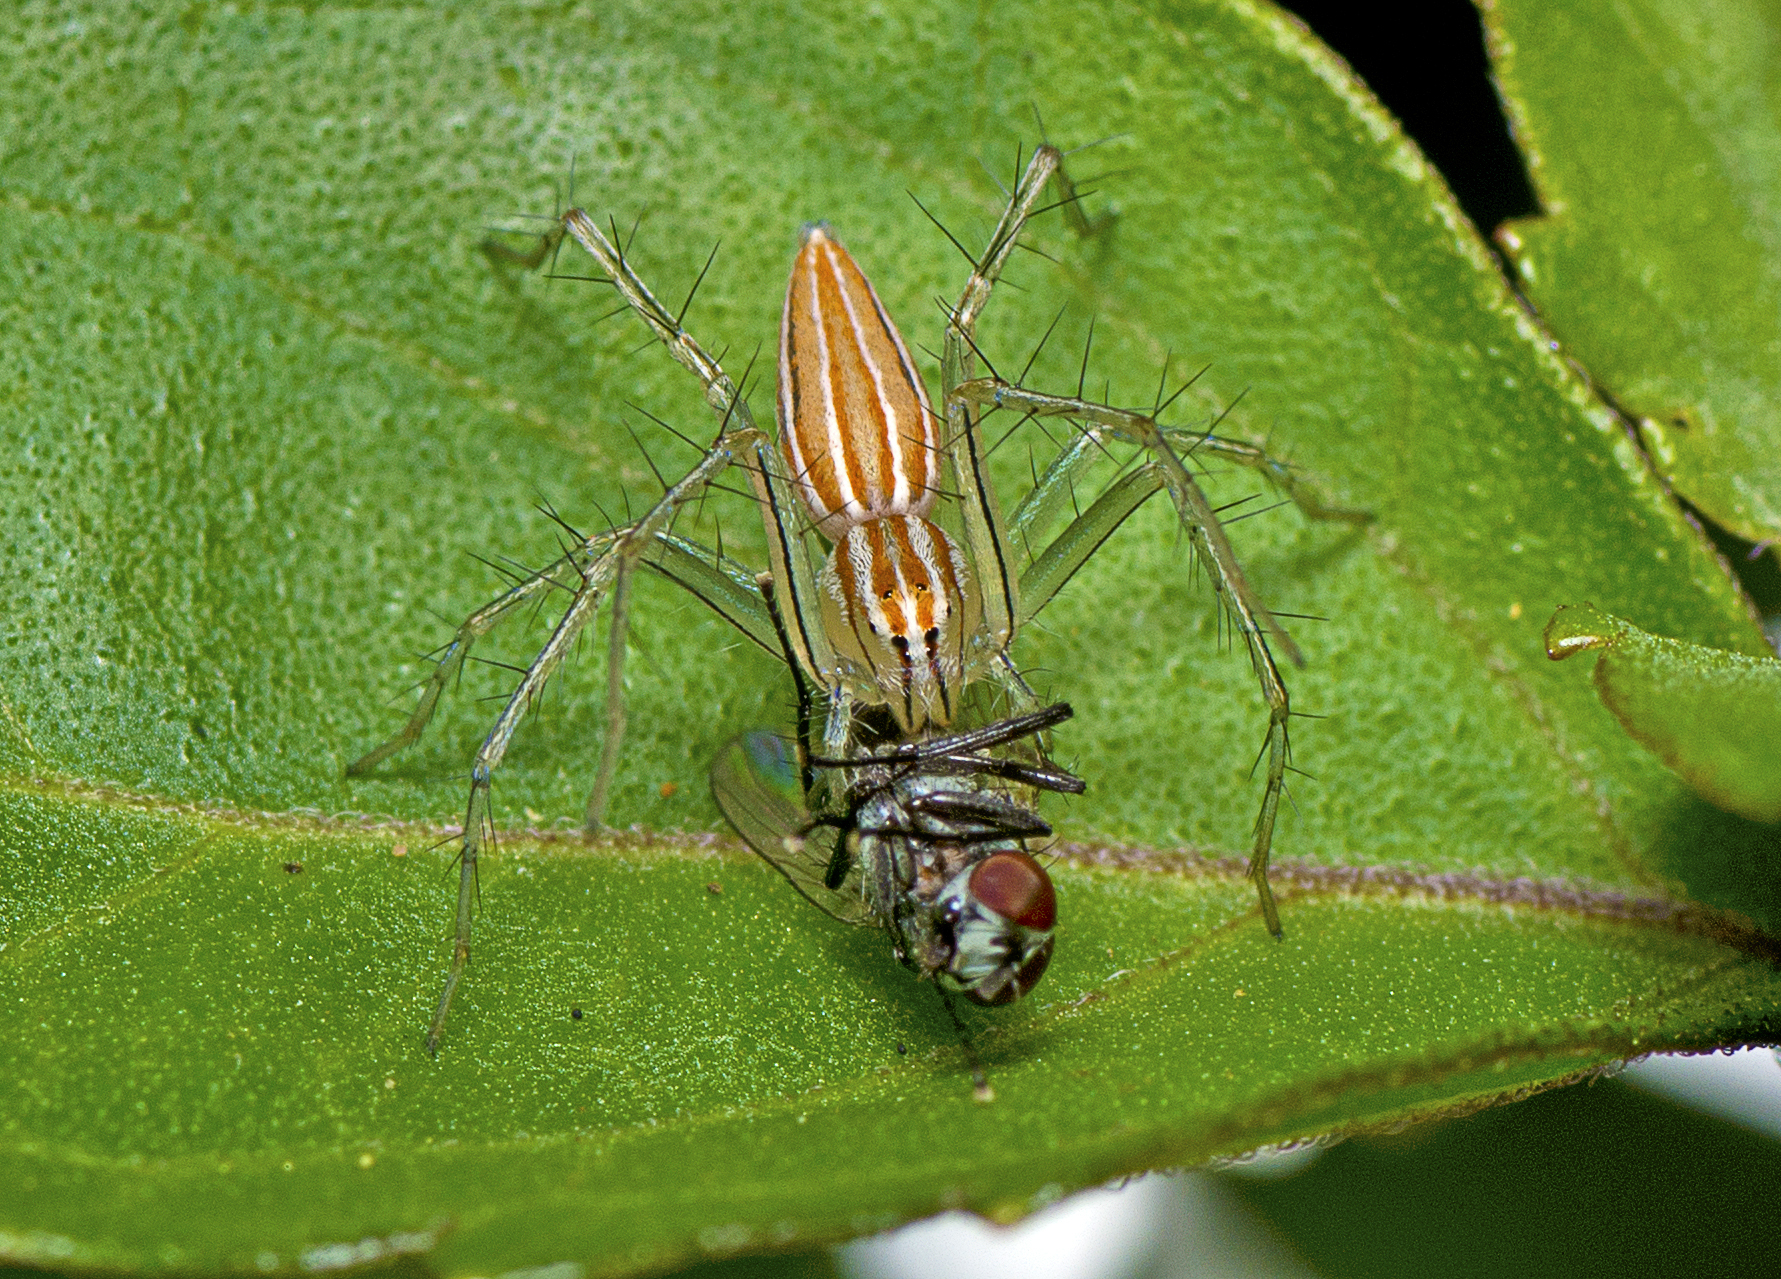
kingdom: Animalia
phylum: Arthropoda
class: Arachnida
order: Araneae
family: Oxyopidae
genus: Oxyopes
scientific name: Oxyopes macilentus
